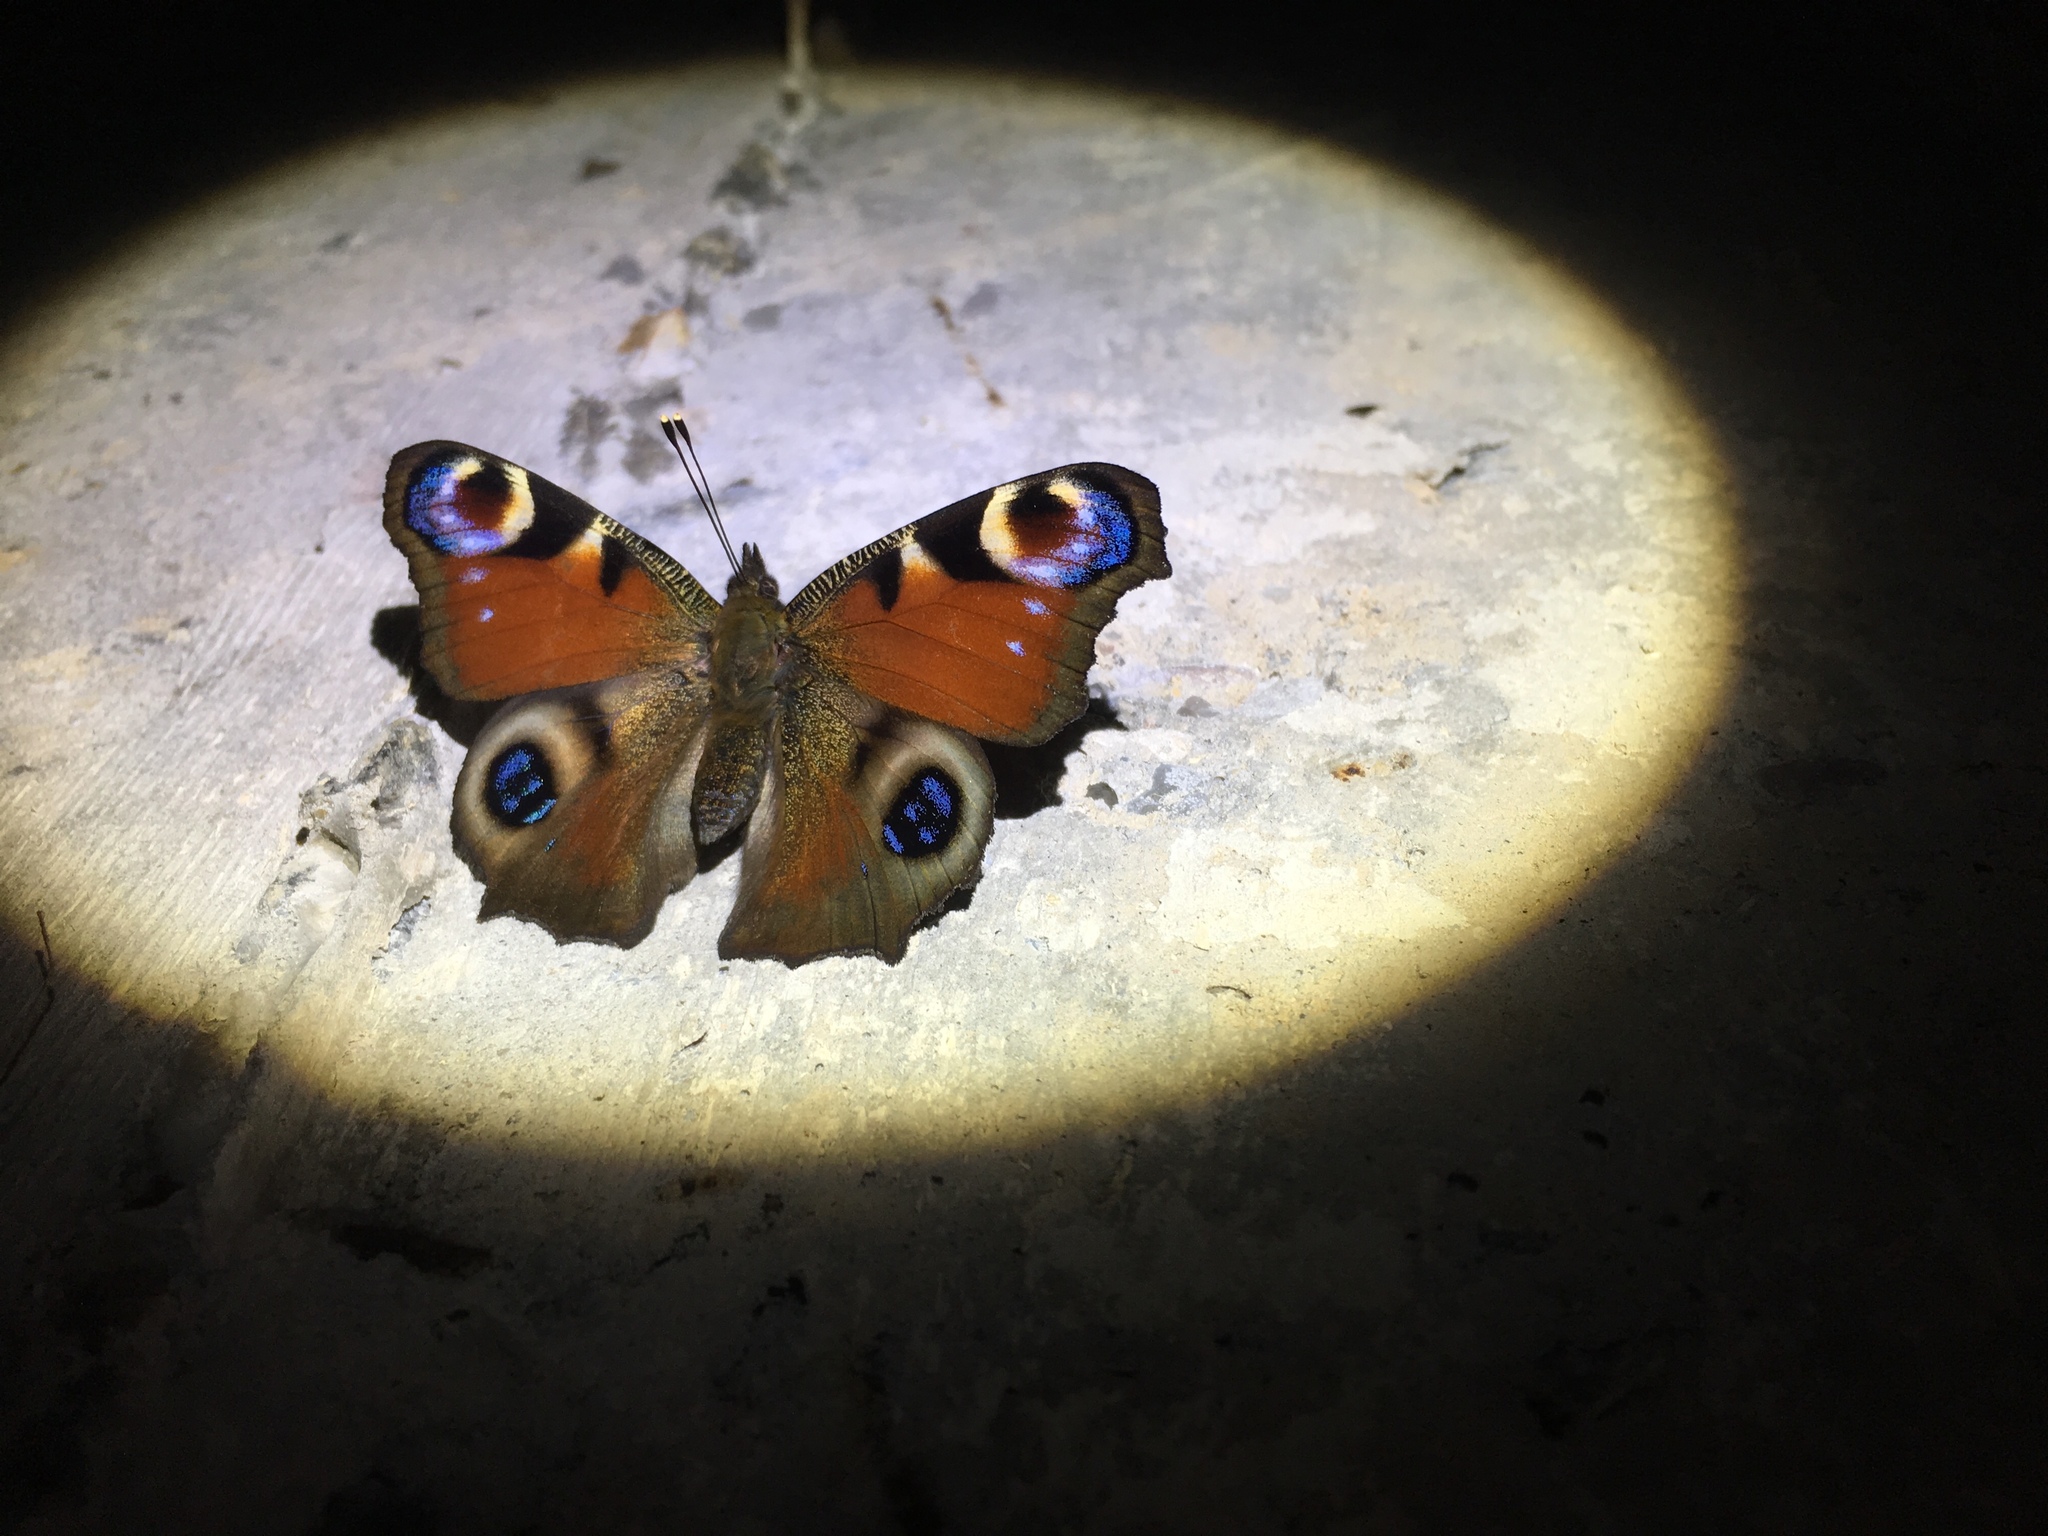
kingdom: Animalia
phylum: Arthropoda
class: Insecta
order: Lepidoptera
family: Nymphalidae
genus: Aglais
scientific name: Aglais io
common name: Peacock
